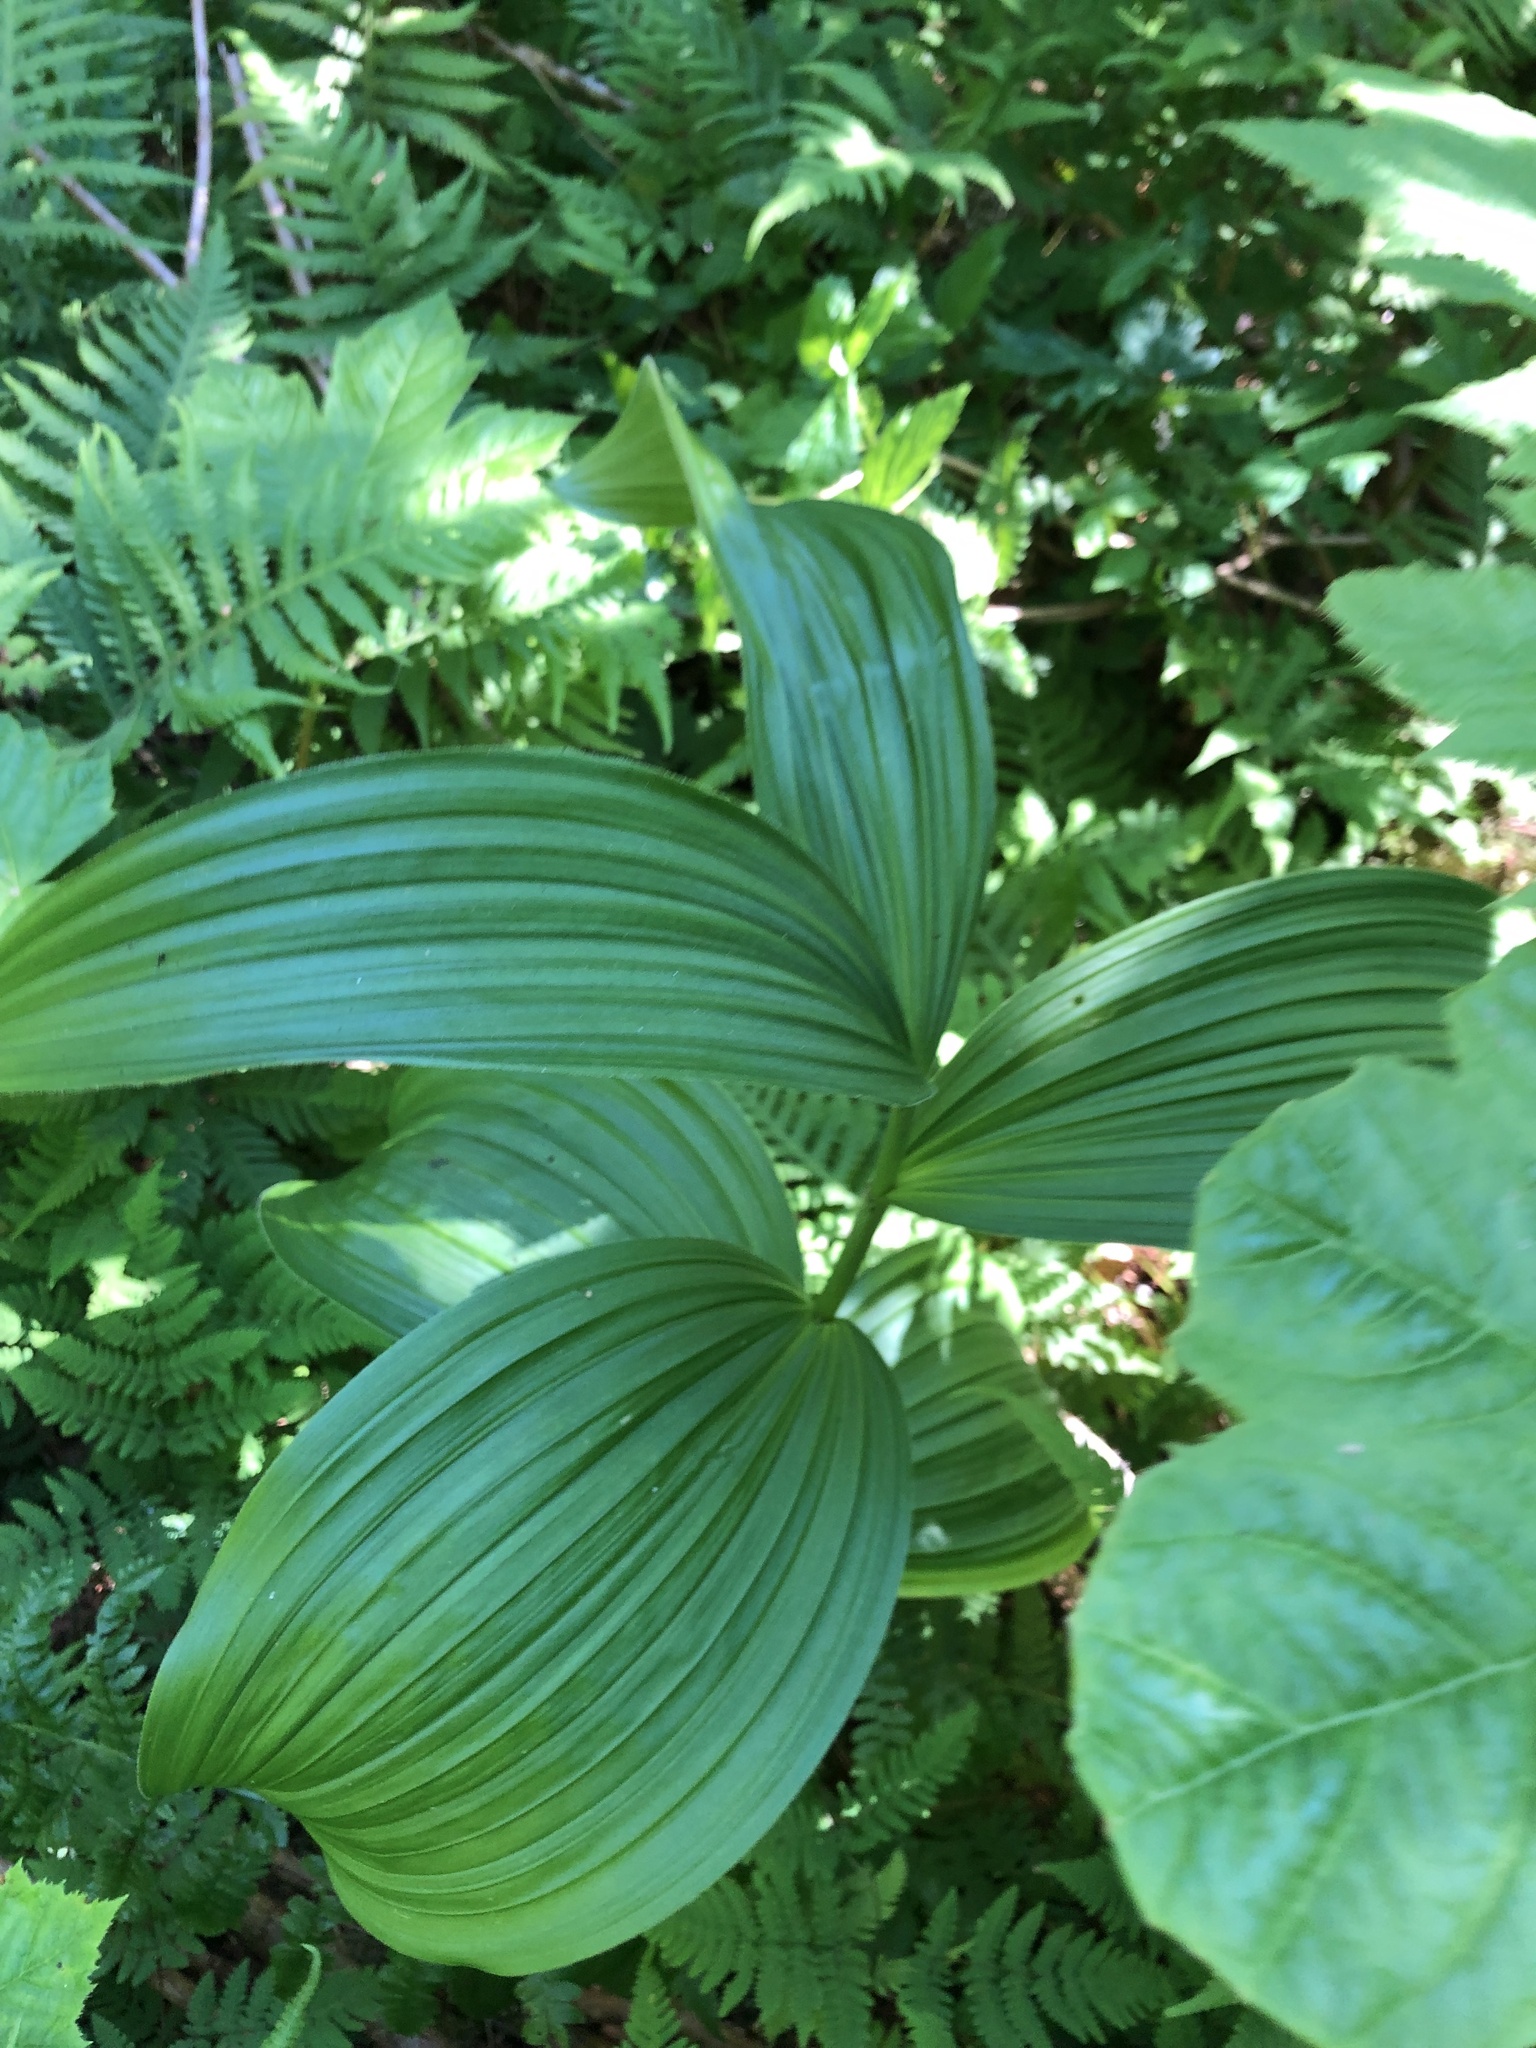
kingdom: Plantae
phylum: Tracheophyta
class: Liliopsida
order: Liliales
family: Melanthiaceae
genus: Veratrum
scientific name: Veratrum viride
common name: American false hellebore
